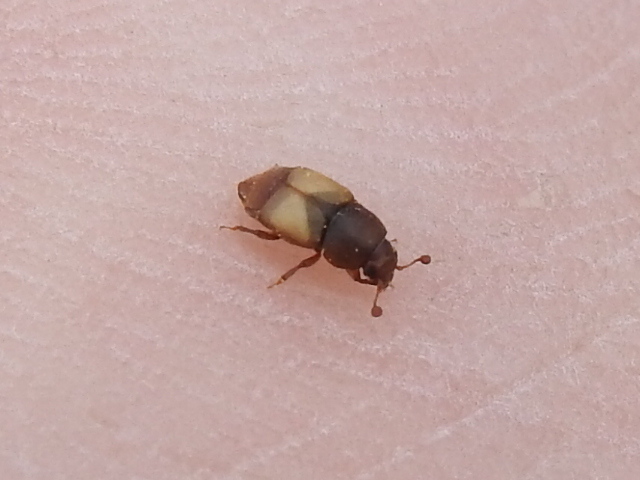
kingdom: Animalia
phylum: Arthropoda
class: Insecta
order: Coleoptera
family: Nitidulidae
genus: Nitops
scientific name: Nitops pallipennis
